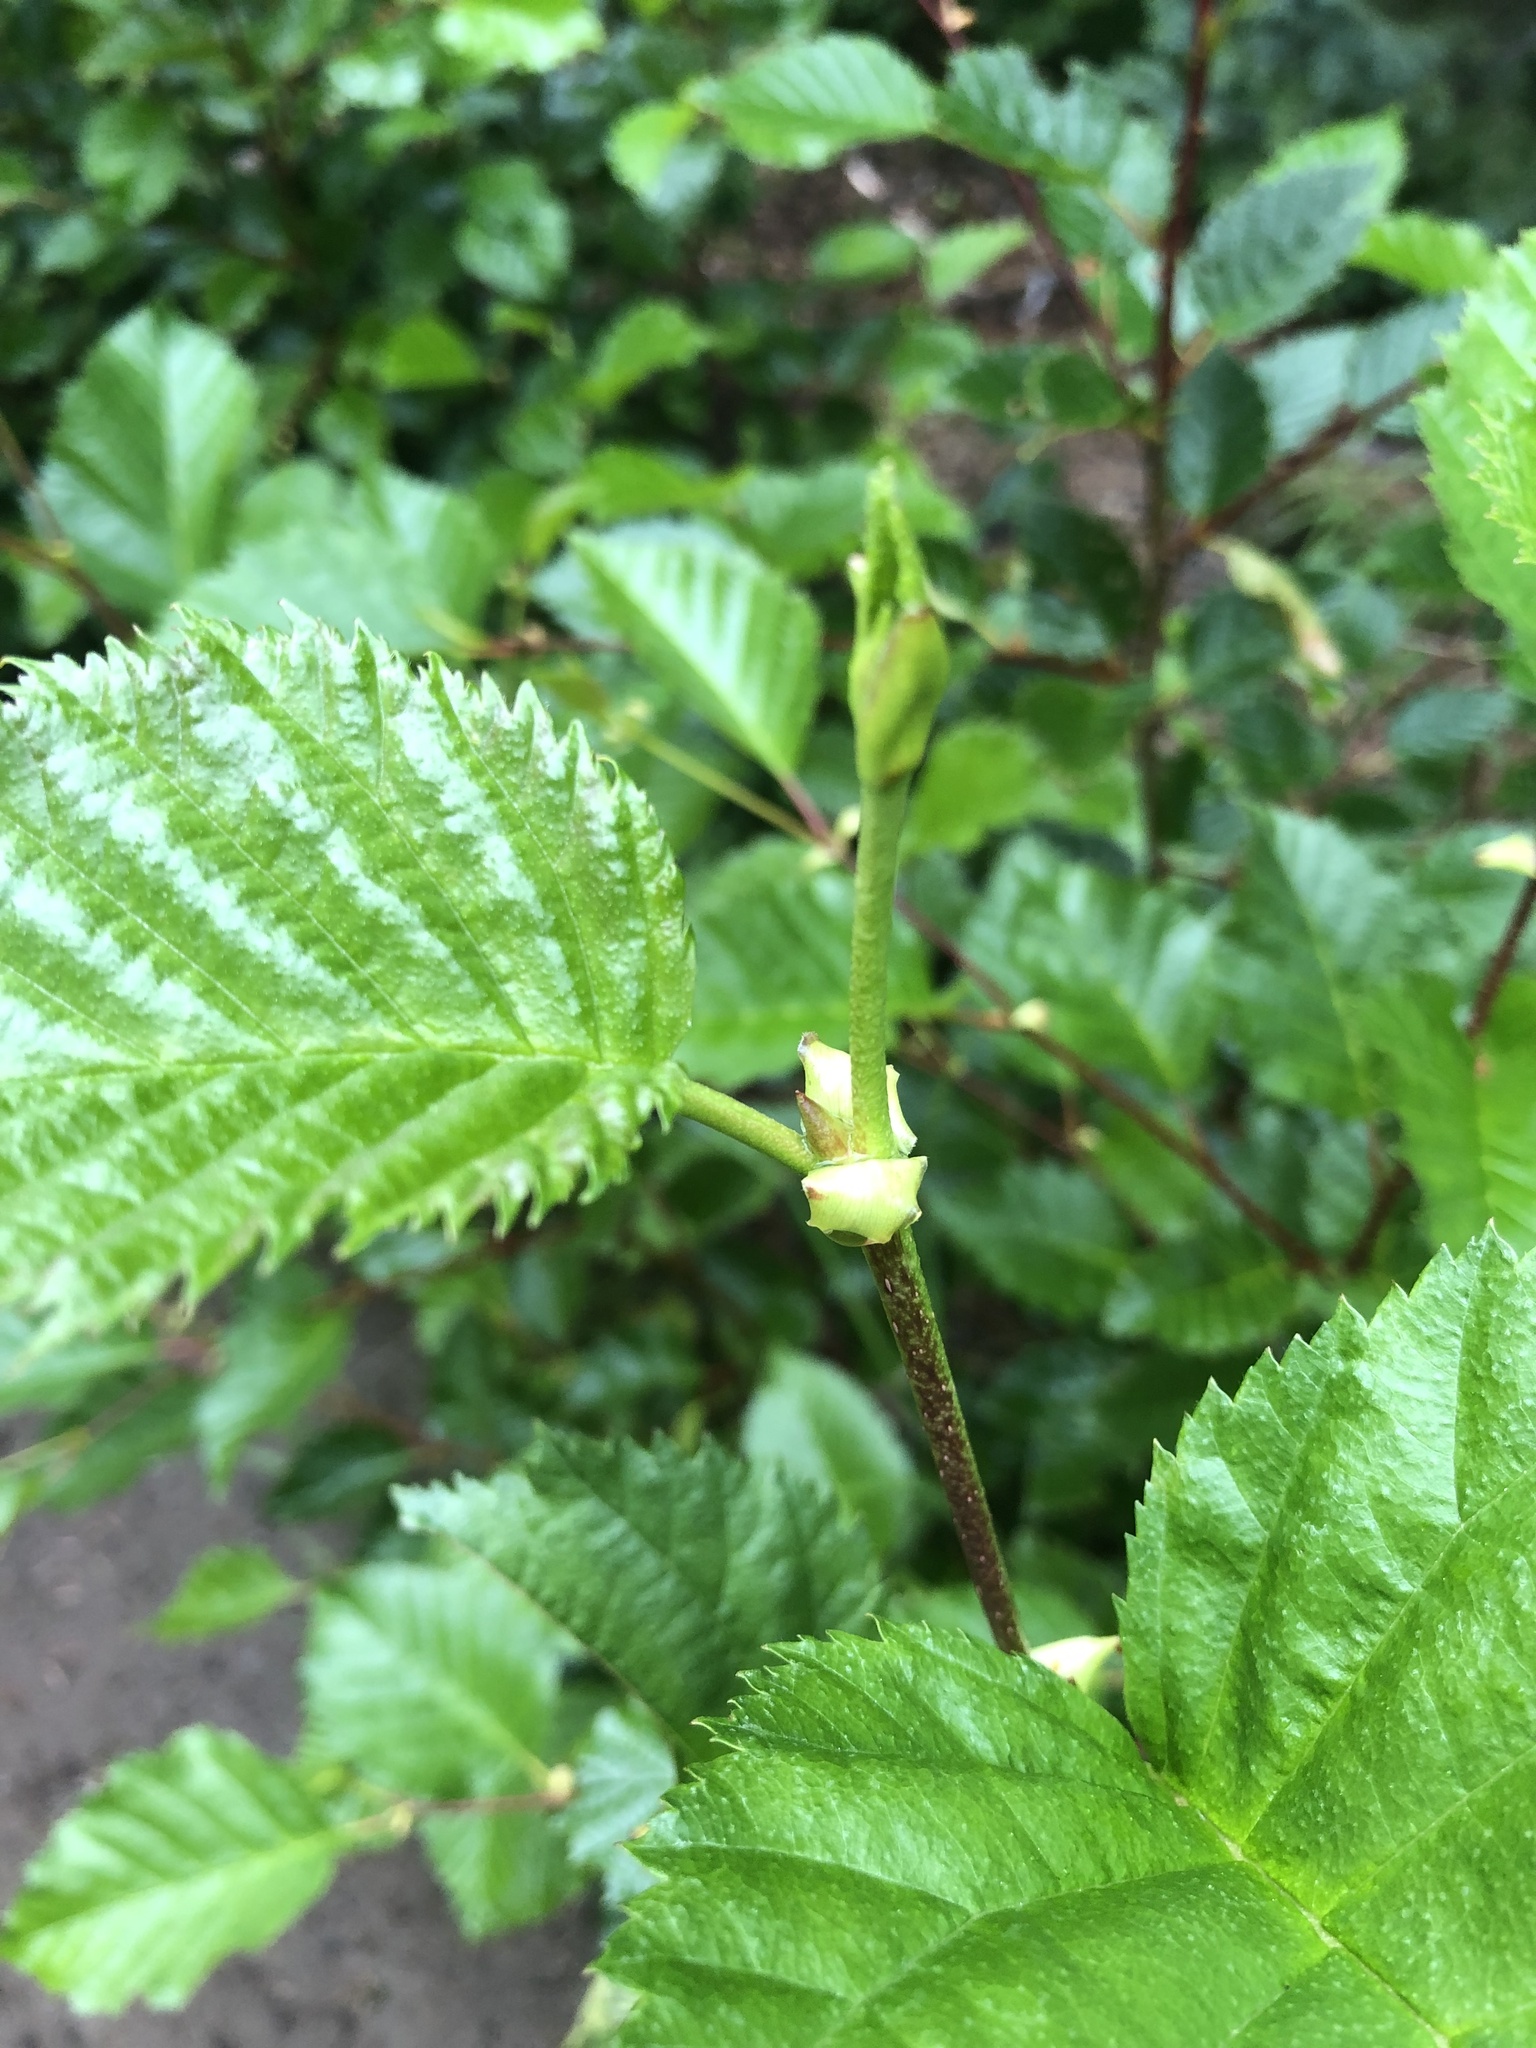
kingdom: Plantae
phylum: Tracheophyta
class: Magnoliopsida
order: Fagales
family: Betulaceae
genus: Alnus
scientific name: Alnus alnobetula
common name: Green alder
